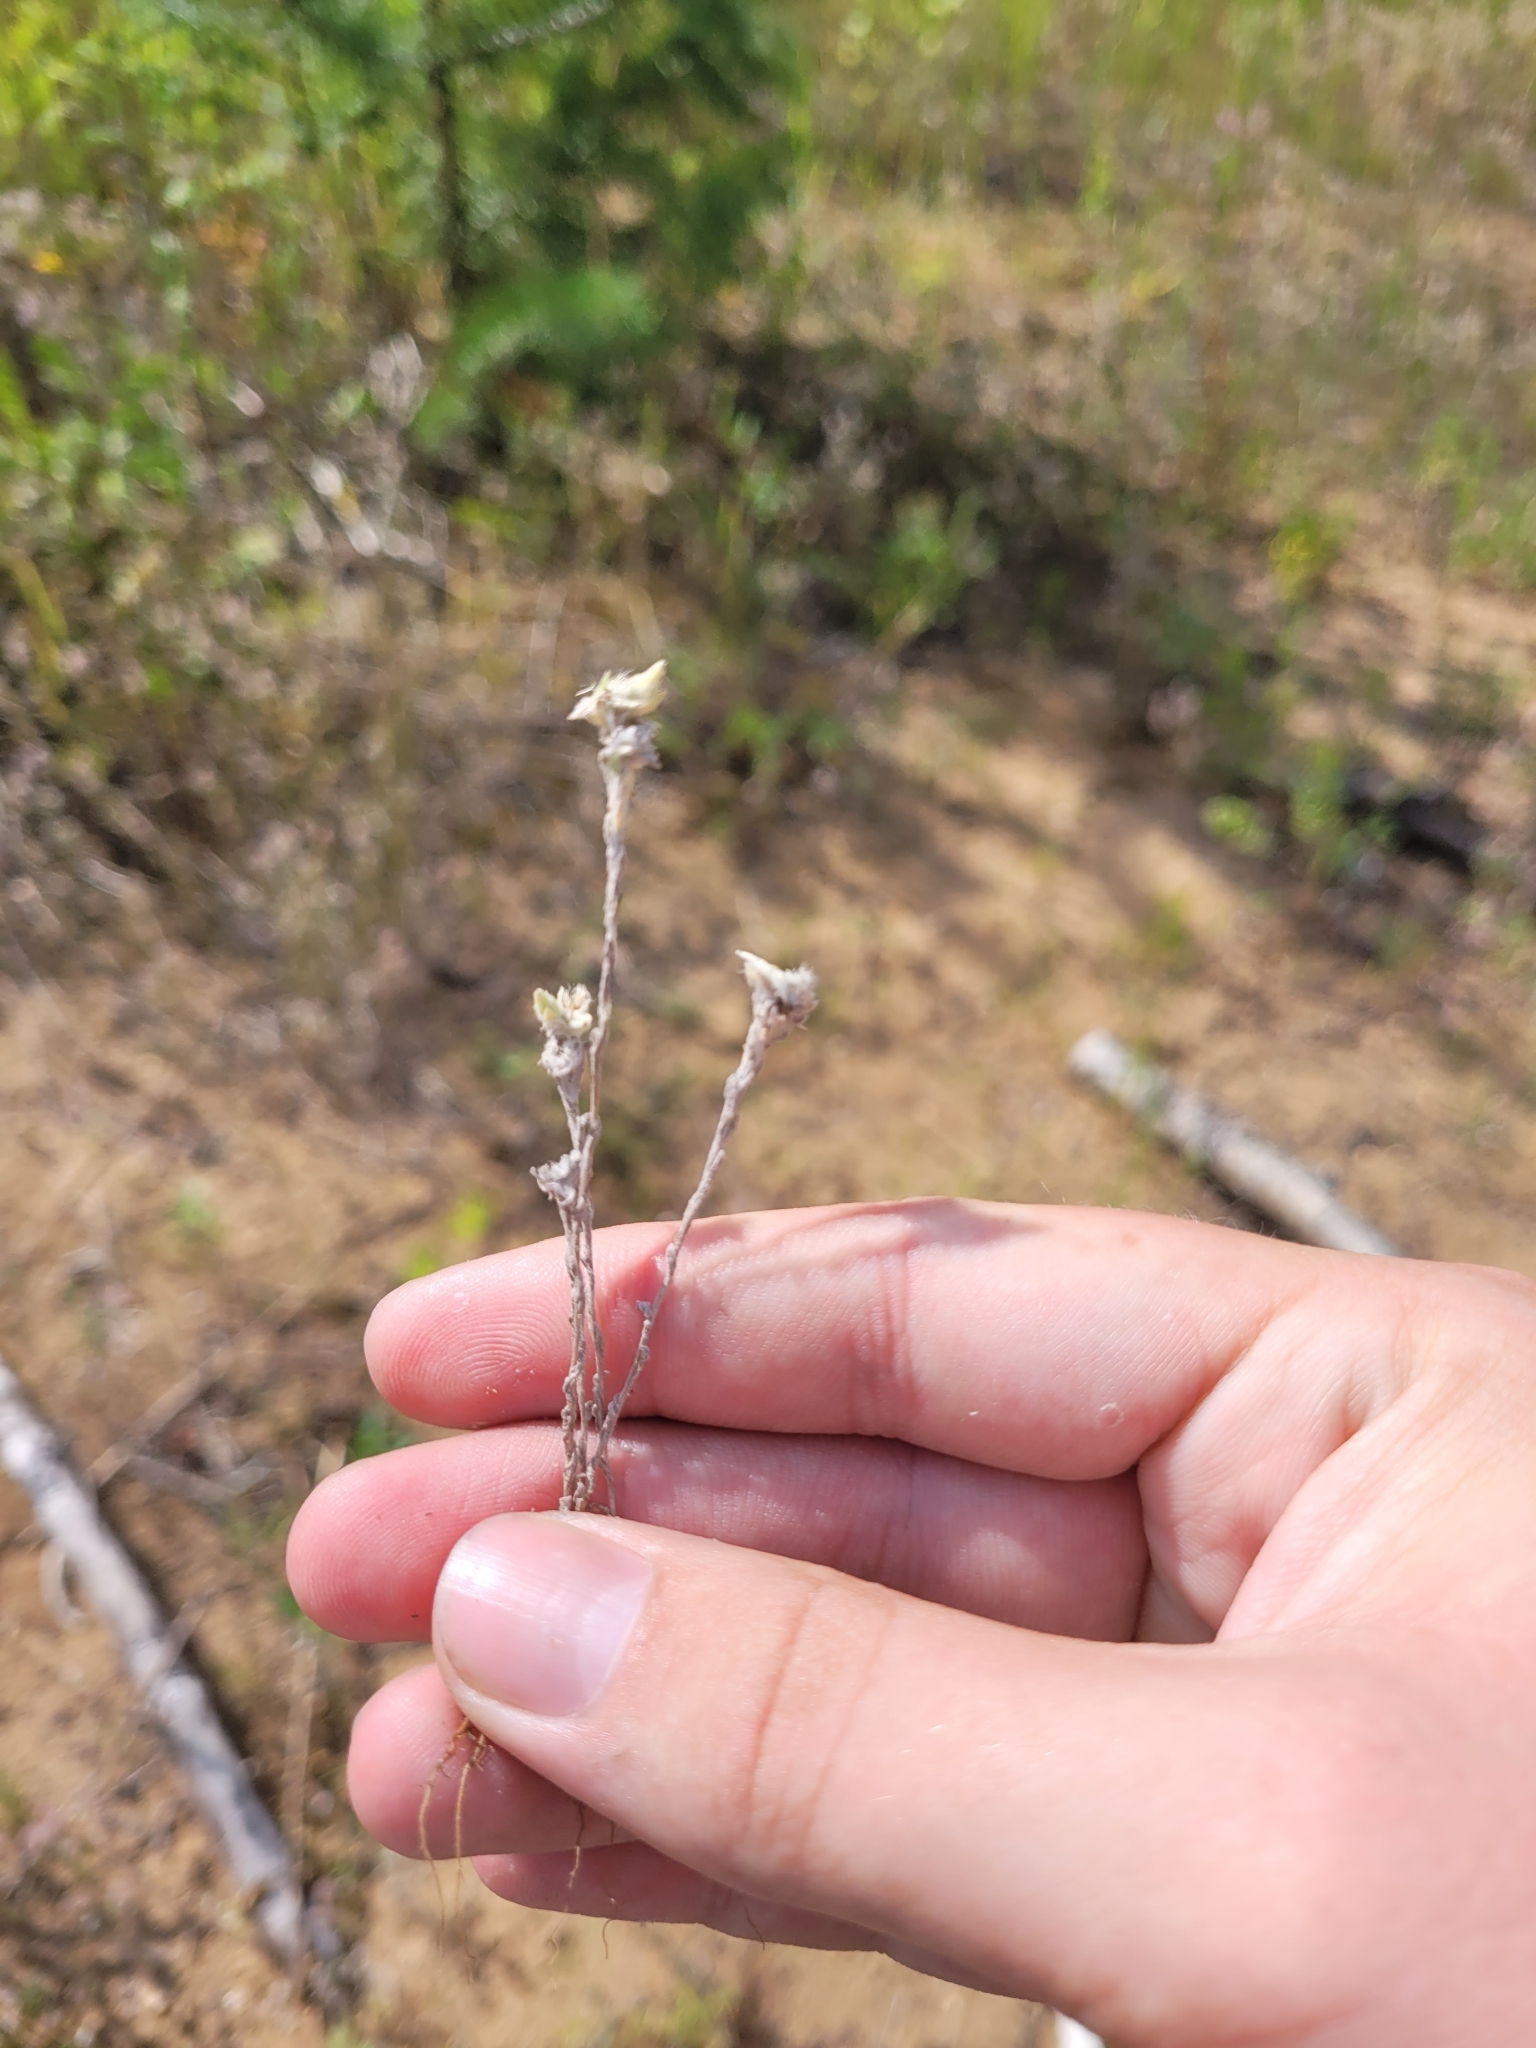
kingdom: Plantae
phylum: Tracheophyta
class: Magnoliopsida
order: Asterales
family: Asteraceae
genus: Filago
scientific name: Filago arvensis
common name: Field cudweed
